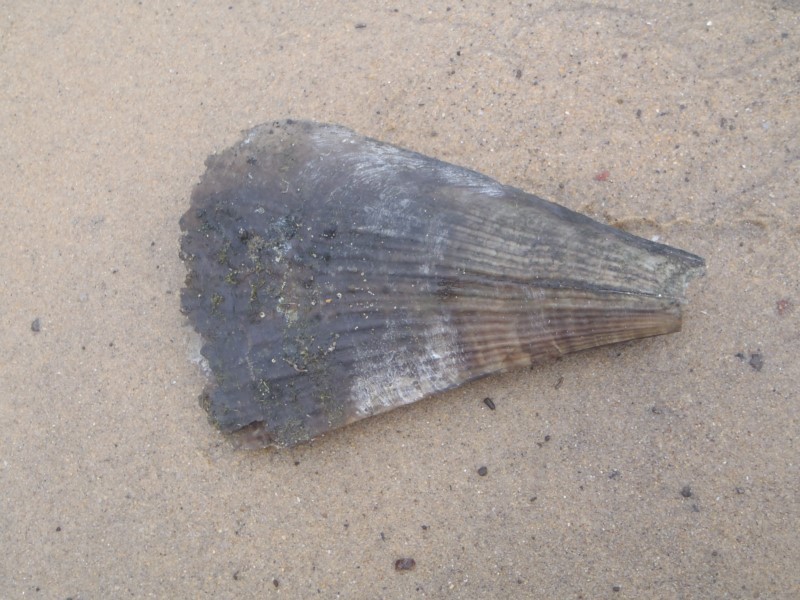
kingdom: Animalia
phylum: Mollusca
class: Bivalvia
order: Ostreida
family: Pinnidae
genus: Pinna
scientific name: Pinna bicolor
